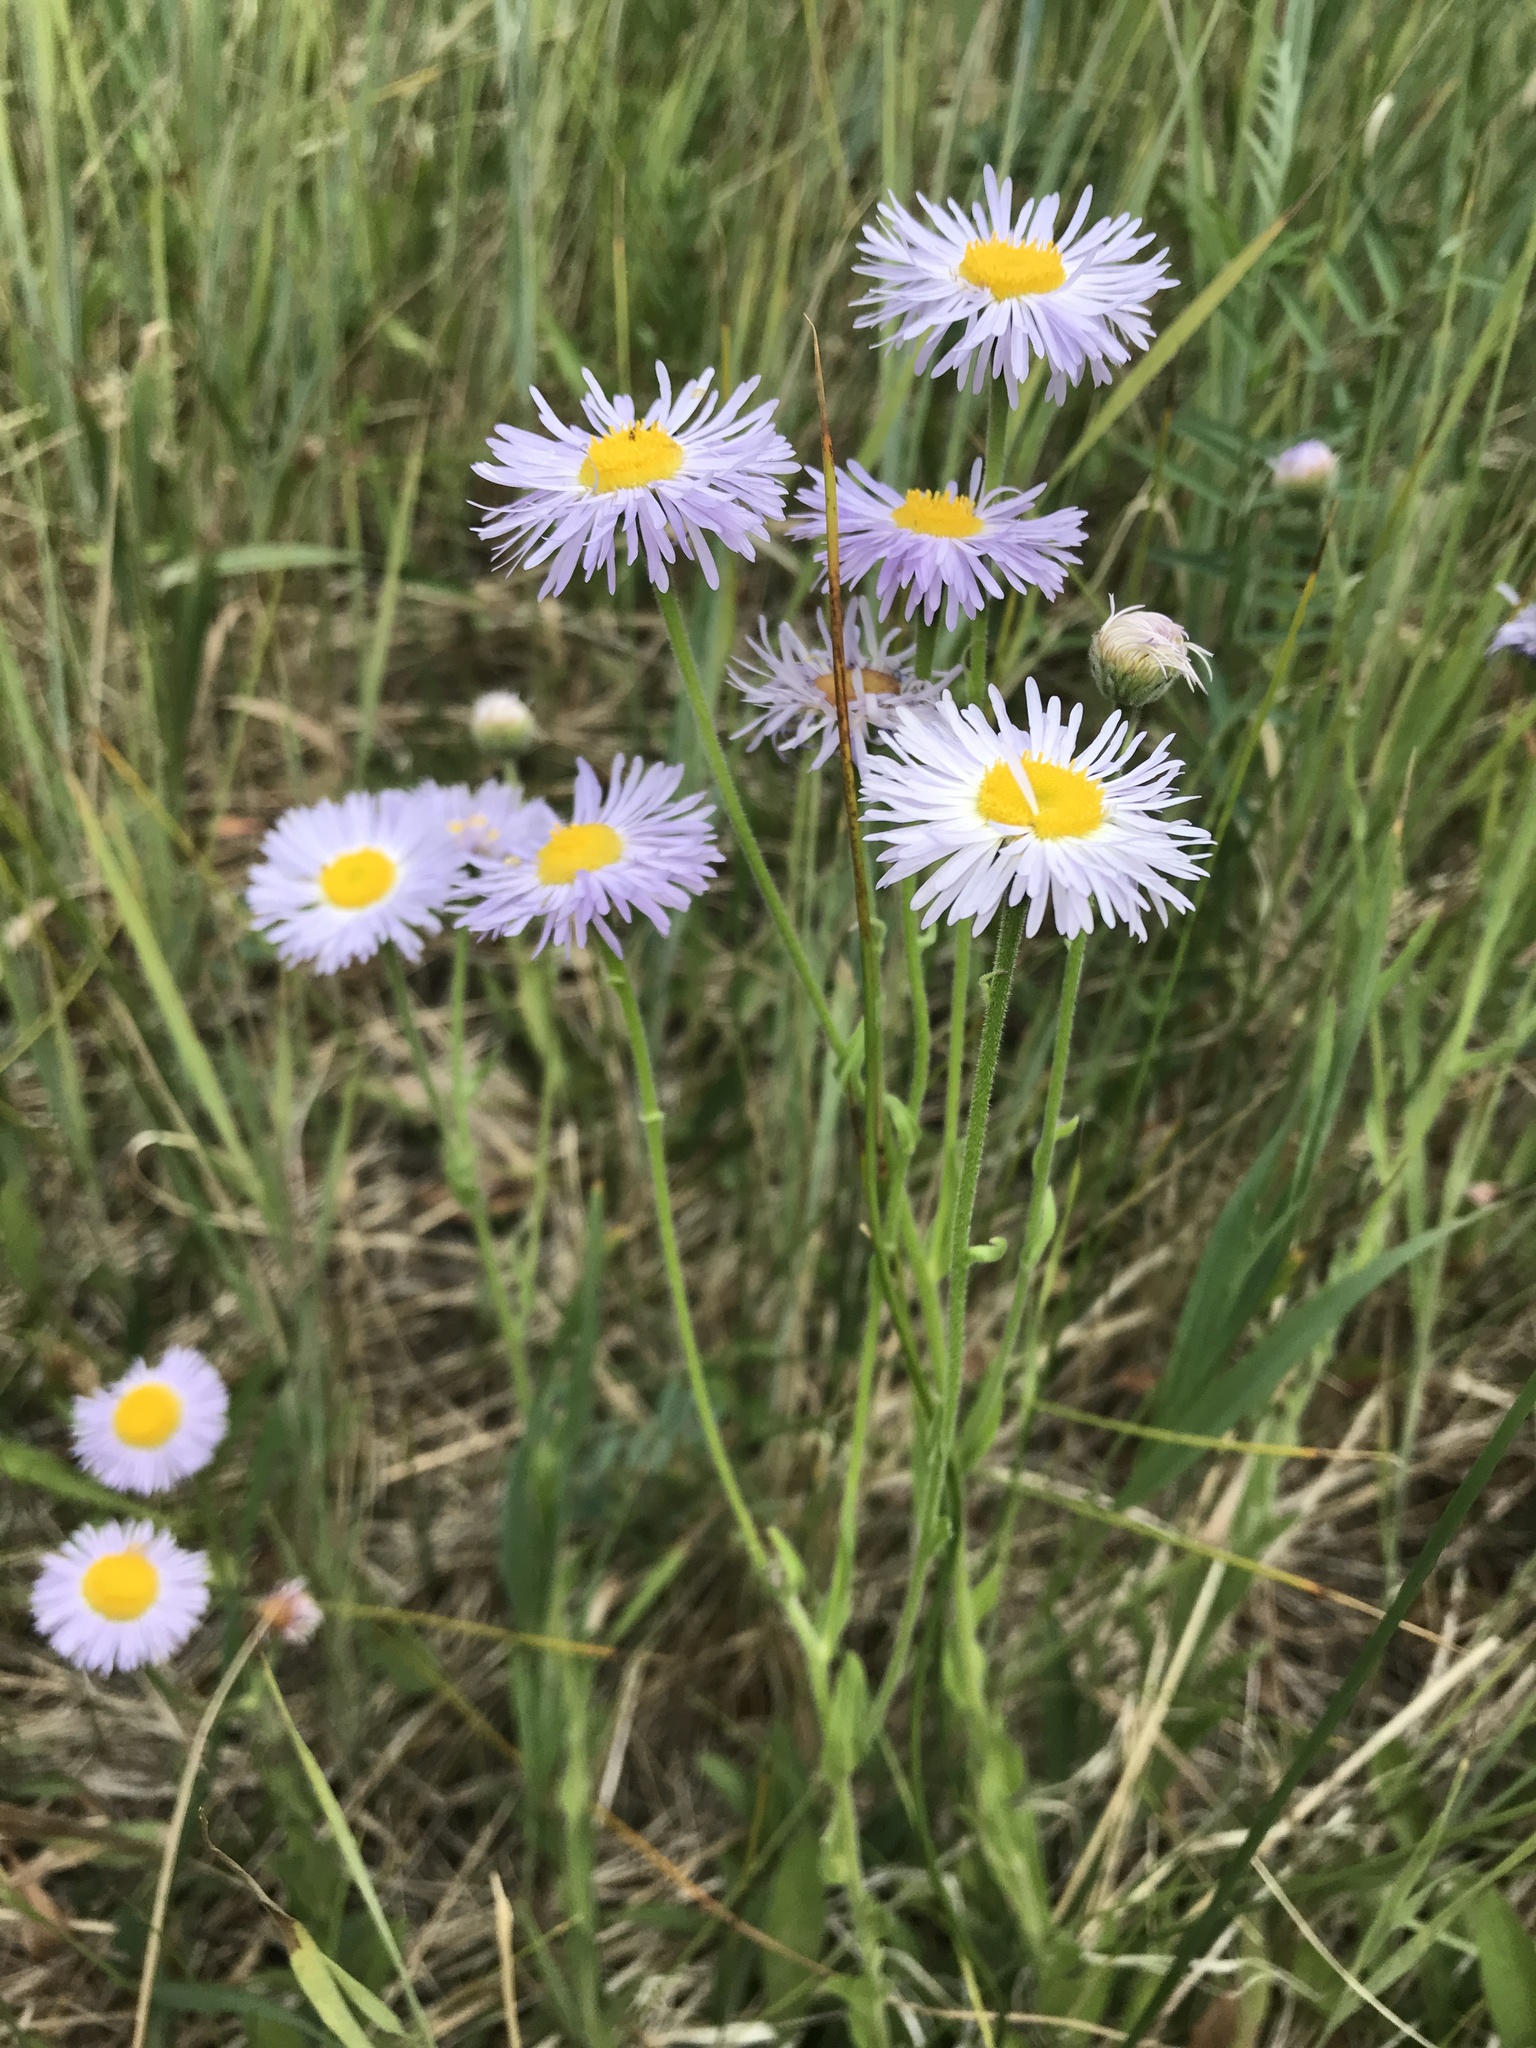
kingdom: Plantae
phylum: Tracheophyta
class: Magnoliopsida
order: Asterales
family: Asteraceae
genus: Erigeron
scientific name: Erigeron speciosus
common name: Aspen fleabane
